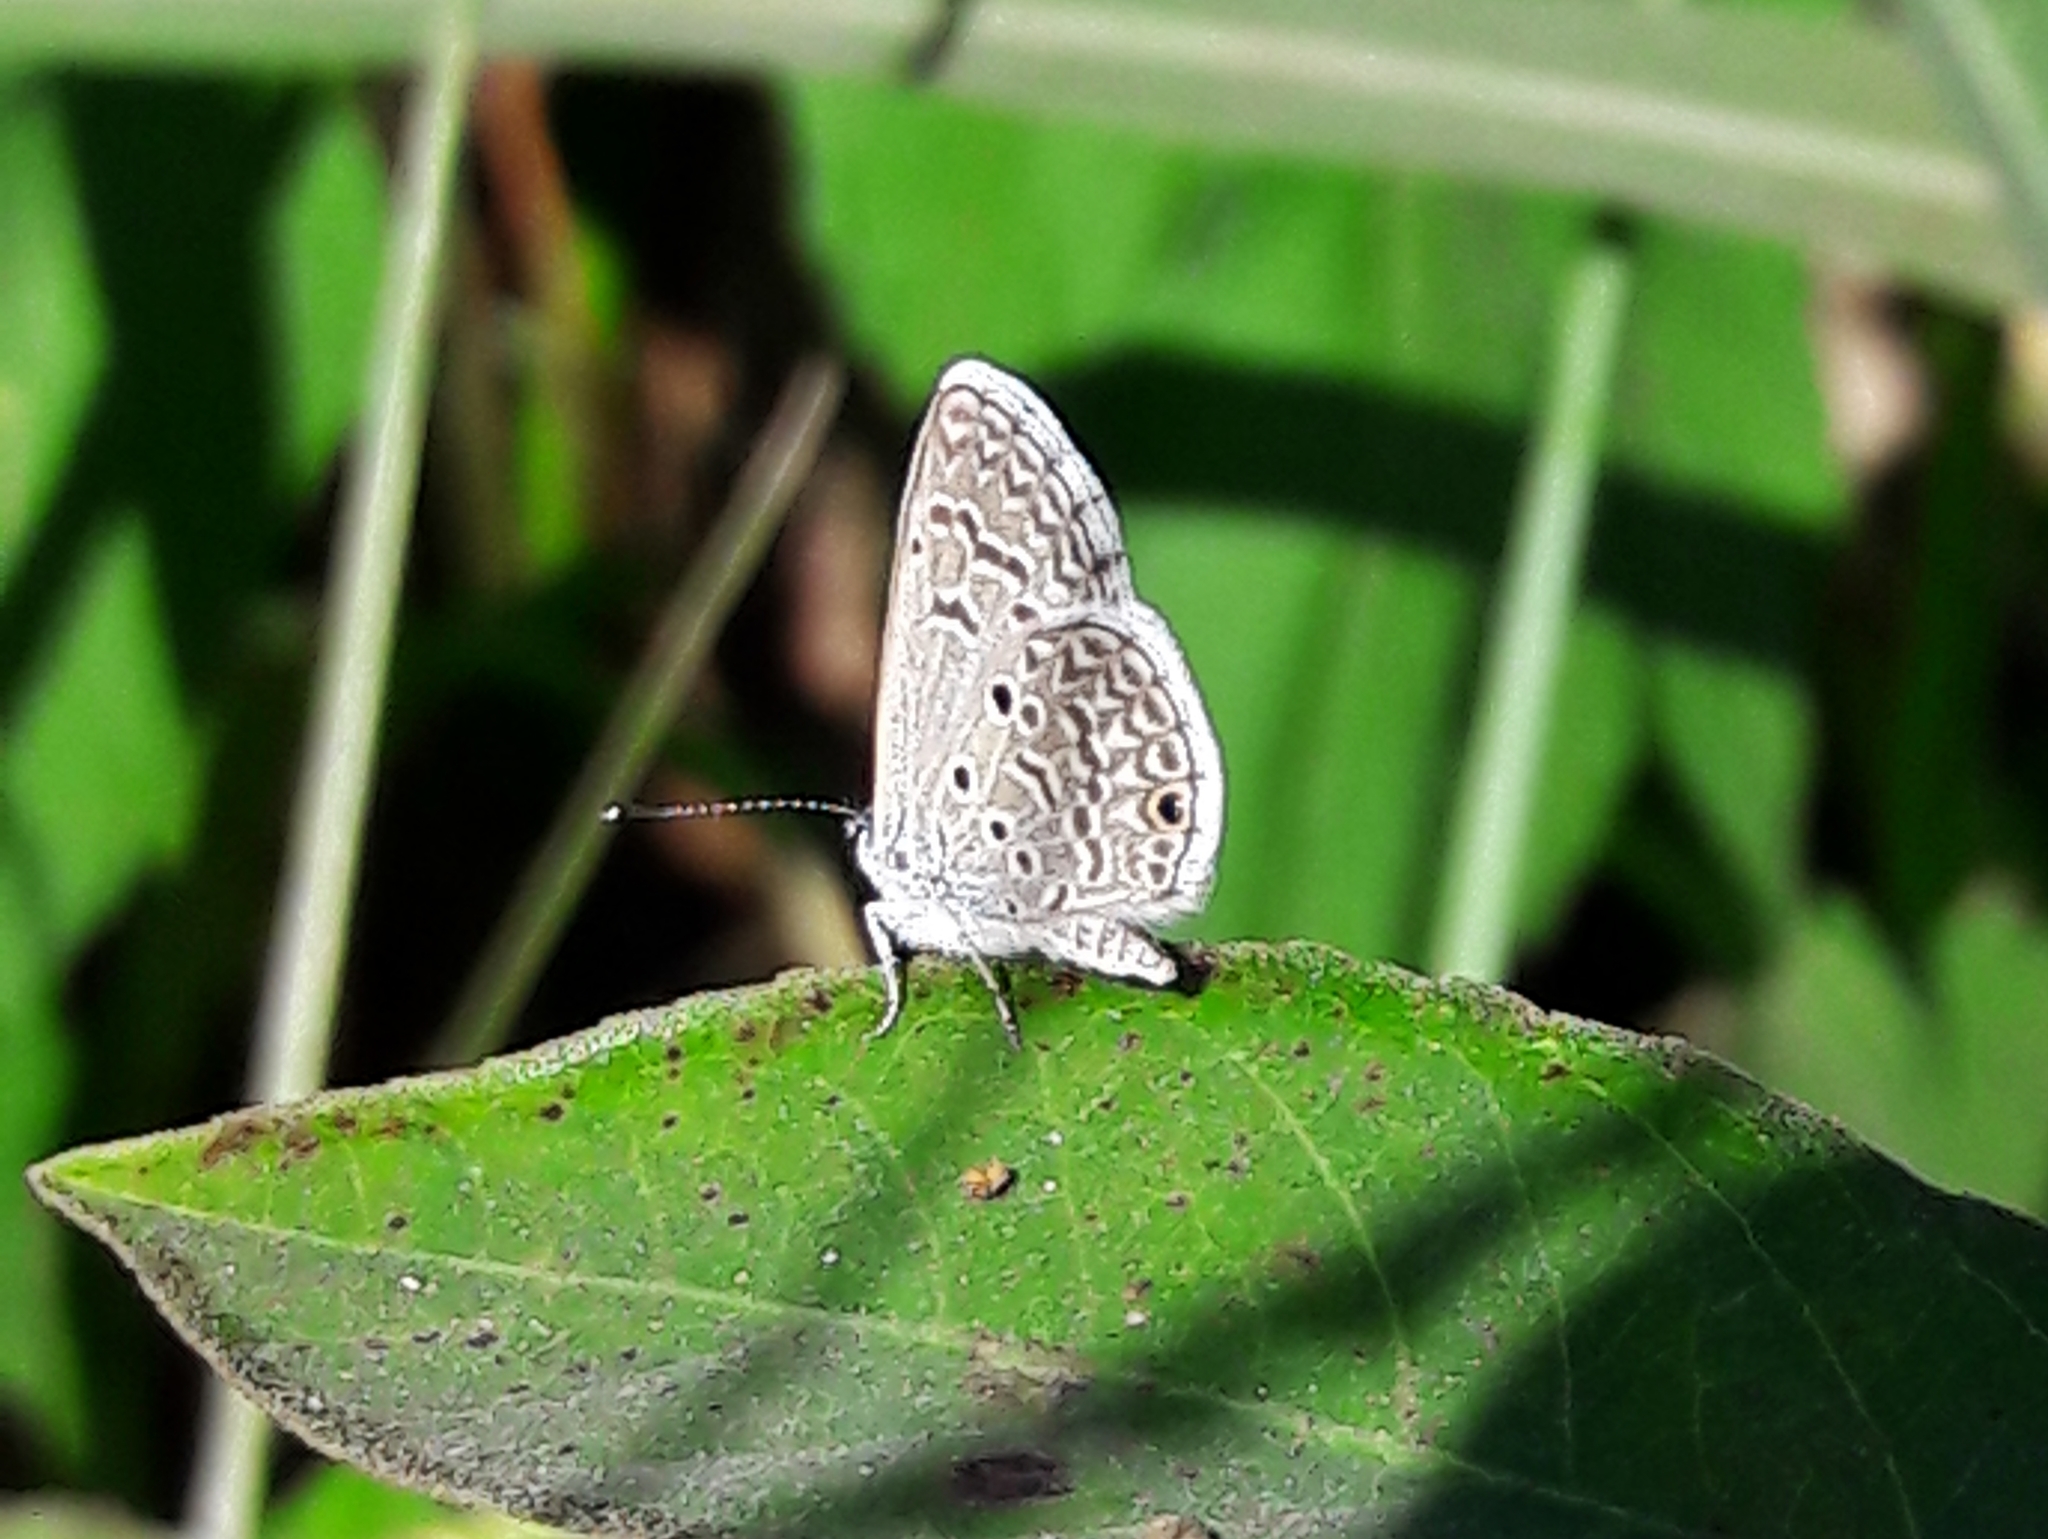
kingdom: Animalia
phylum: Arthropoda
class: Insecta
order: Lepidoptera
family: Lycaenidae
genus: Hemiargus
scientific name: Hemiargus hanno
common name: Common blue
